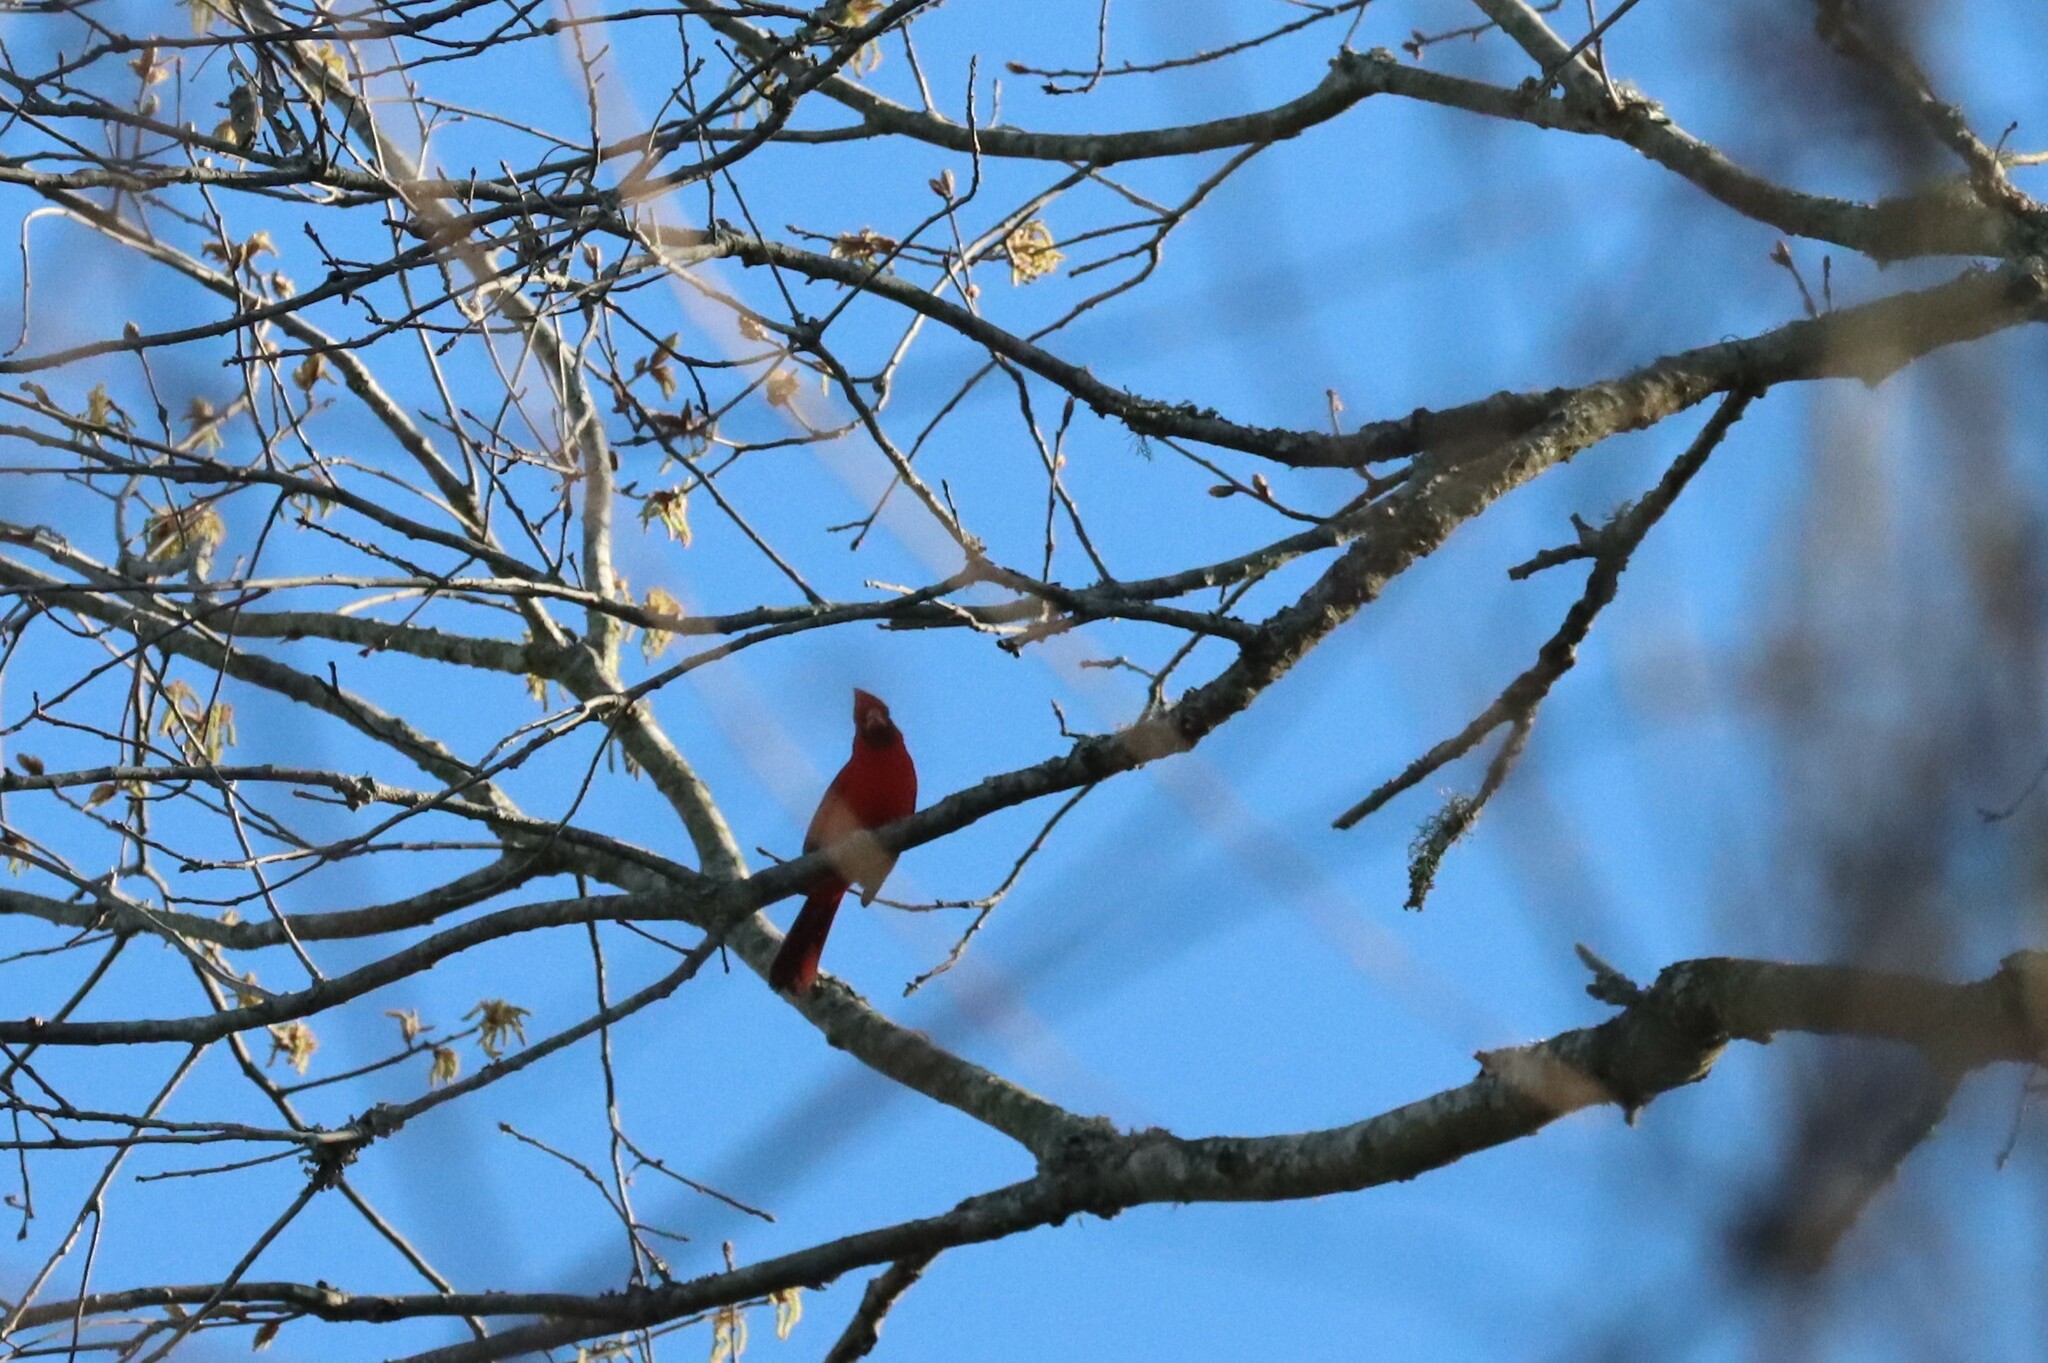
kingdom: Animalia
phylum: Chordata
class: Aves
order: Passeriformes
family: Cardinalidae
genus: Cardinalis
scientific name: Cardinalis cardinalis
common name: Northern cardinal
